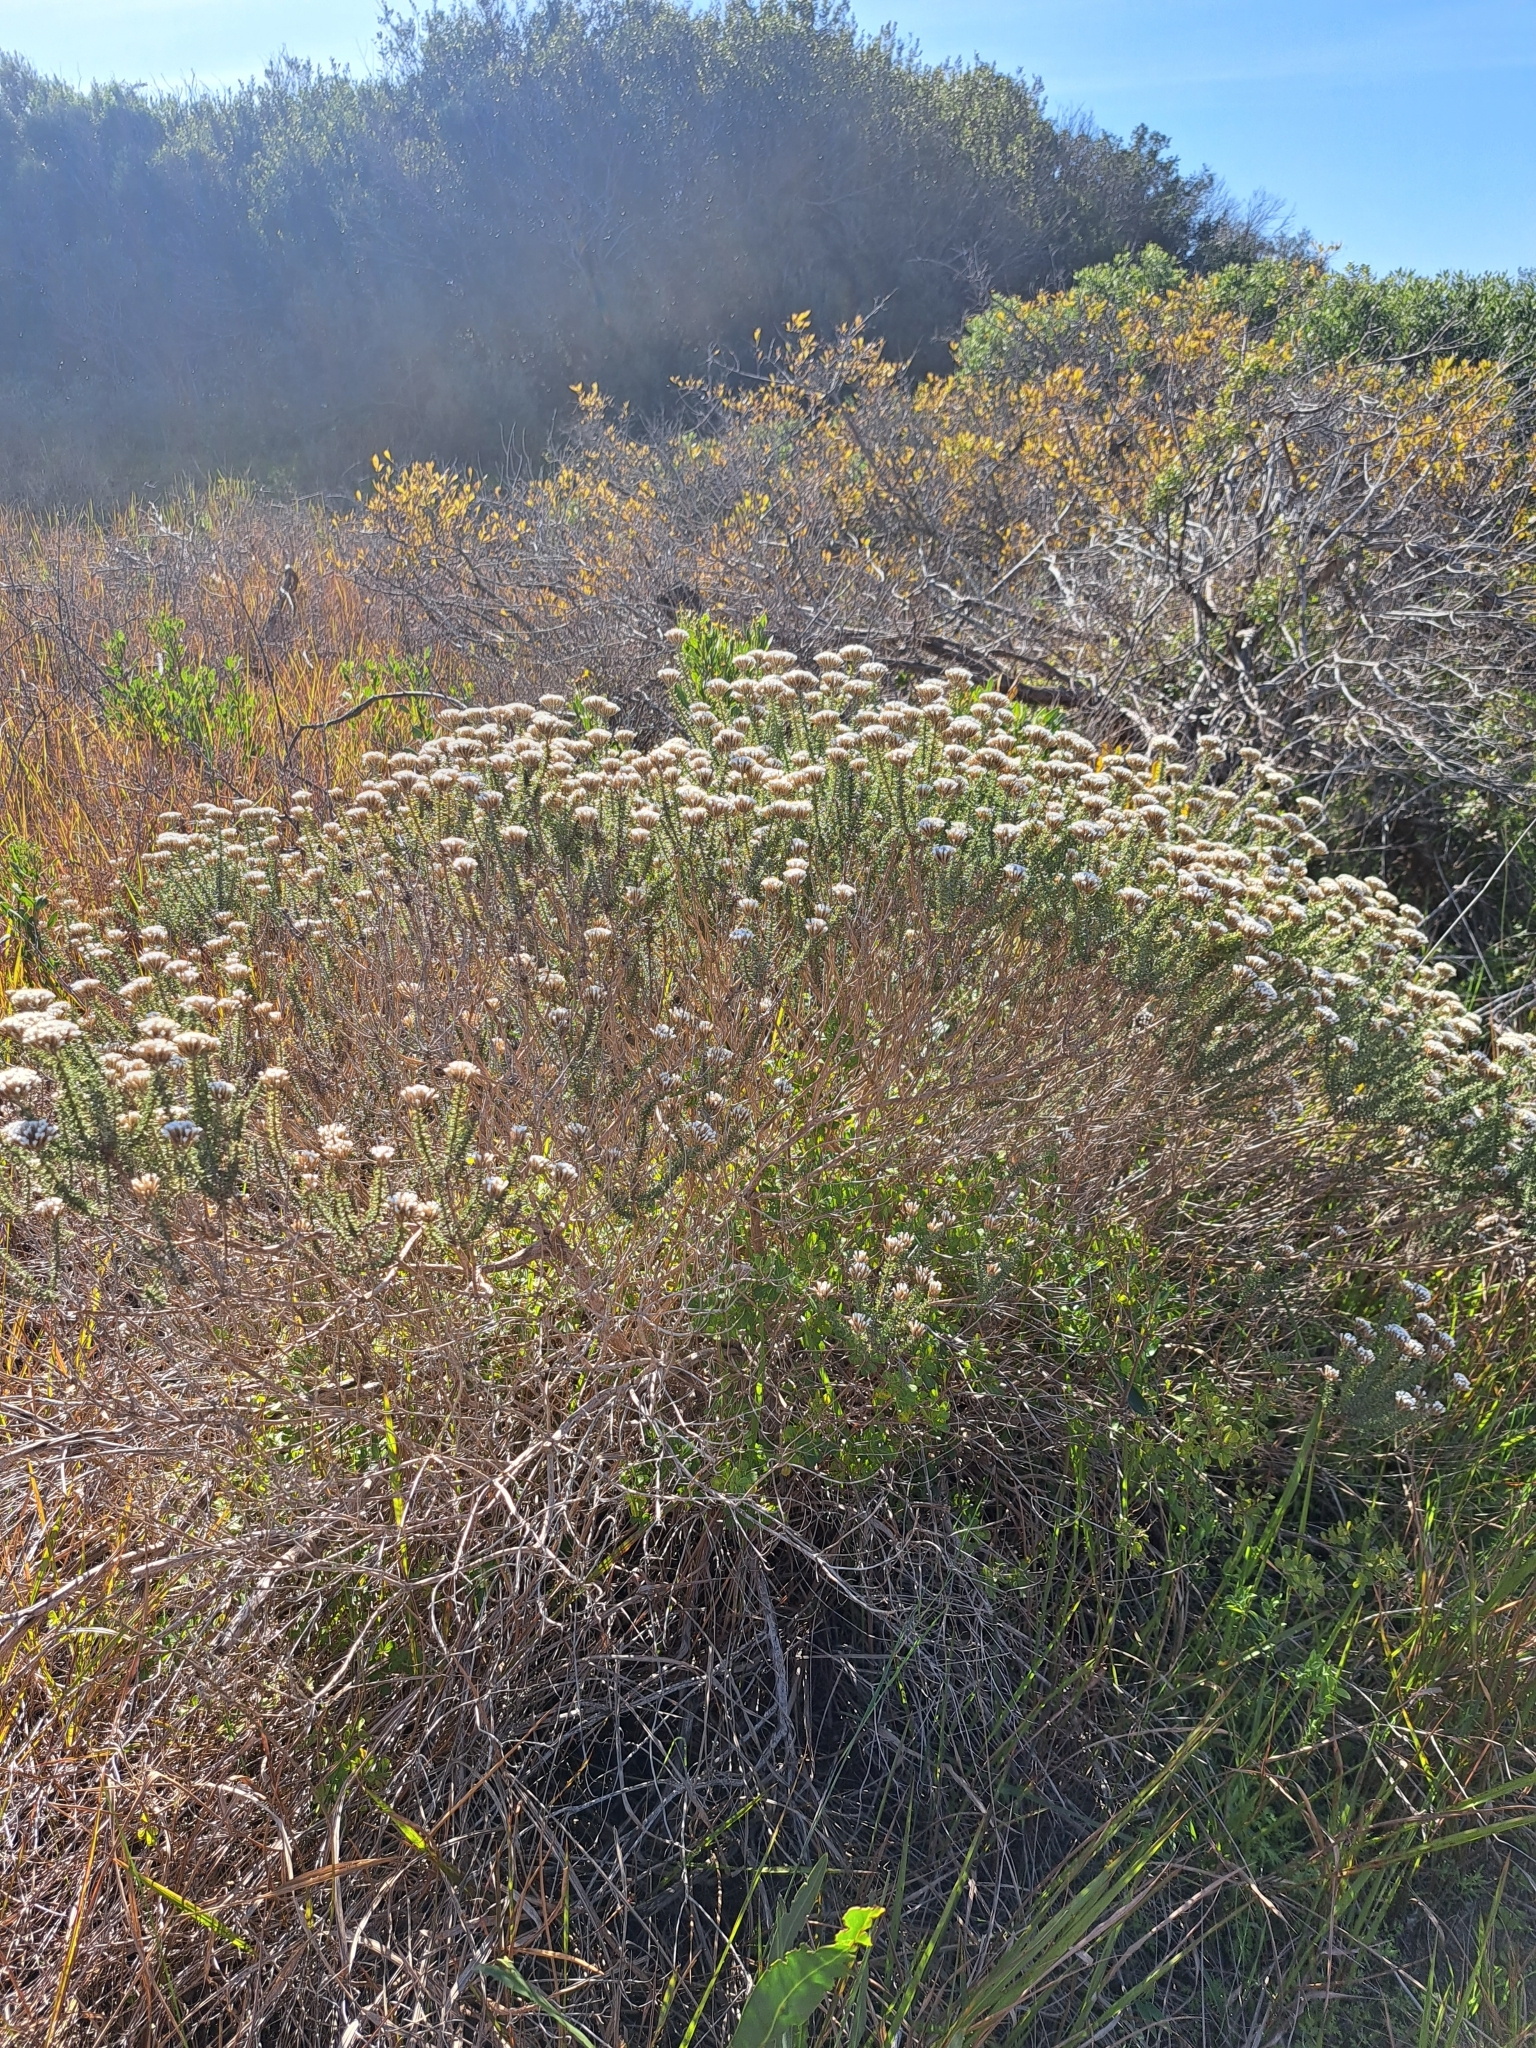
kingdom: Plantae
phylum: Tracheophyta
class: Magnoliopsida
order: Asterales
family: Asteraceae
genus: Metalasia
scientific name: Metalasia muricata
